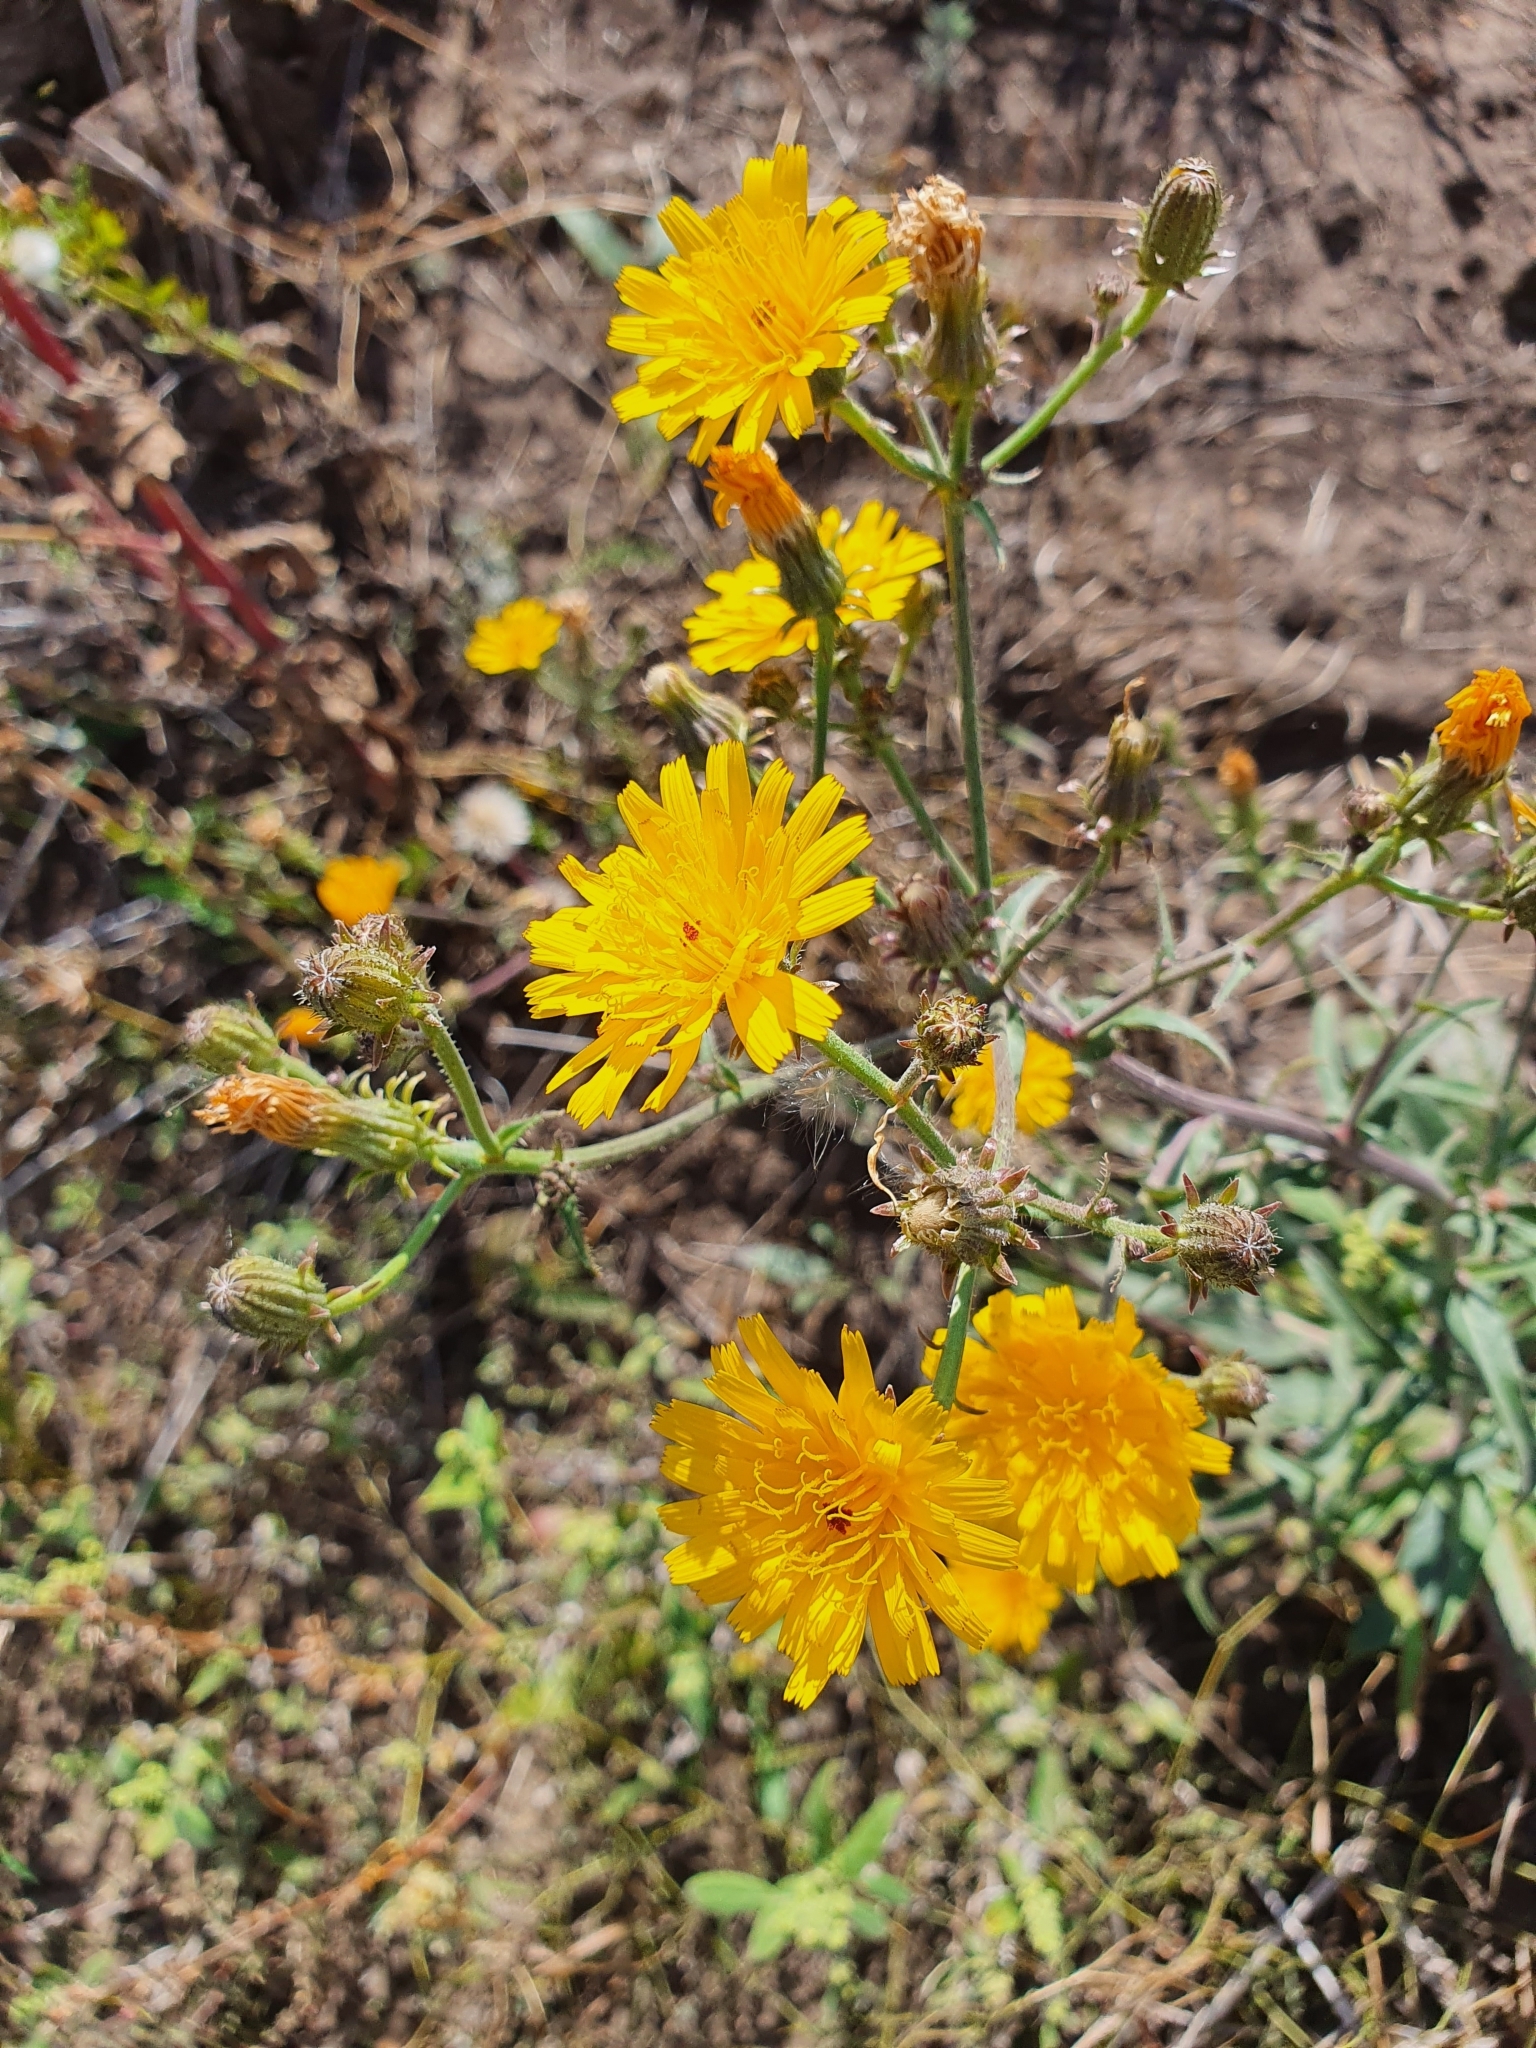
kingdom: Plantae
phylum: Tracheophyta
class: Magnoliopsida
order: Asterales
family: Asteraceae
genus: Picris
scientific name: Picris hieracioides
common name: Hawkweed oxtongue
